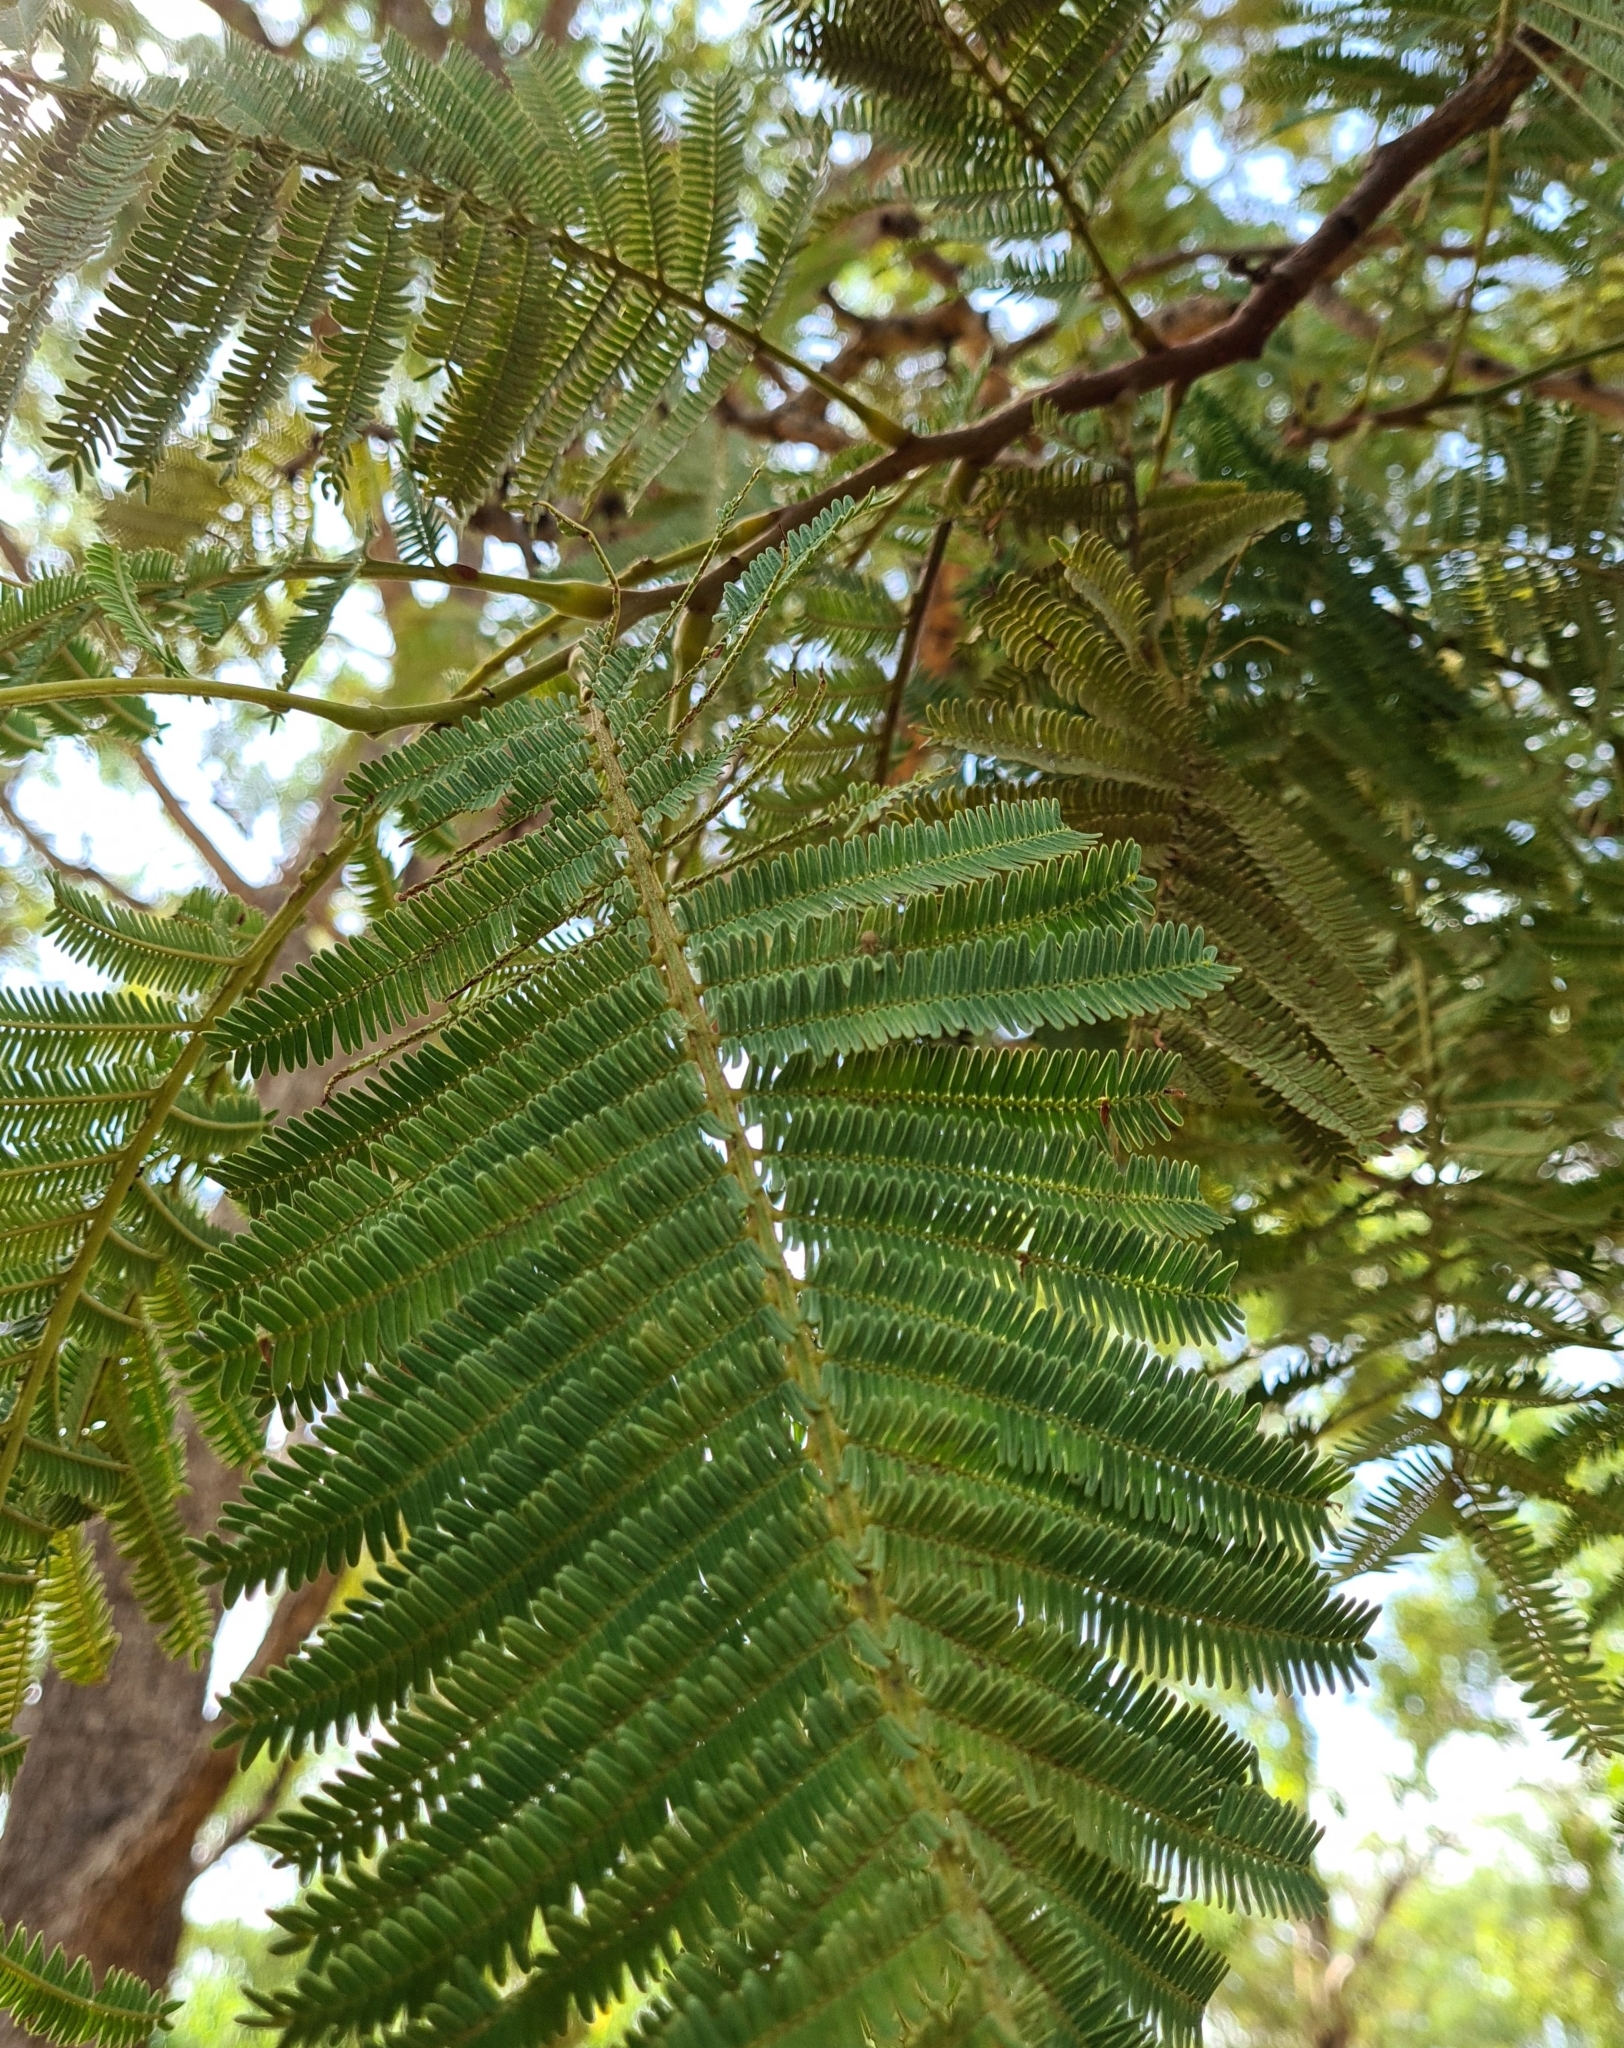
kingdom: Plantae
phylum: Tracheophyta
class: Magnoliopsida
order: Fabales
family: Fabaceae
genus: Vachellia
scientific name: Vachellia pachyphloia
